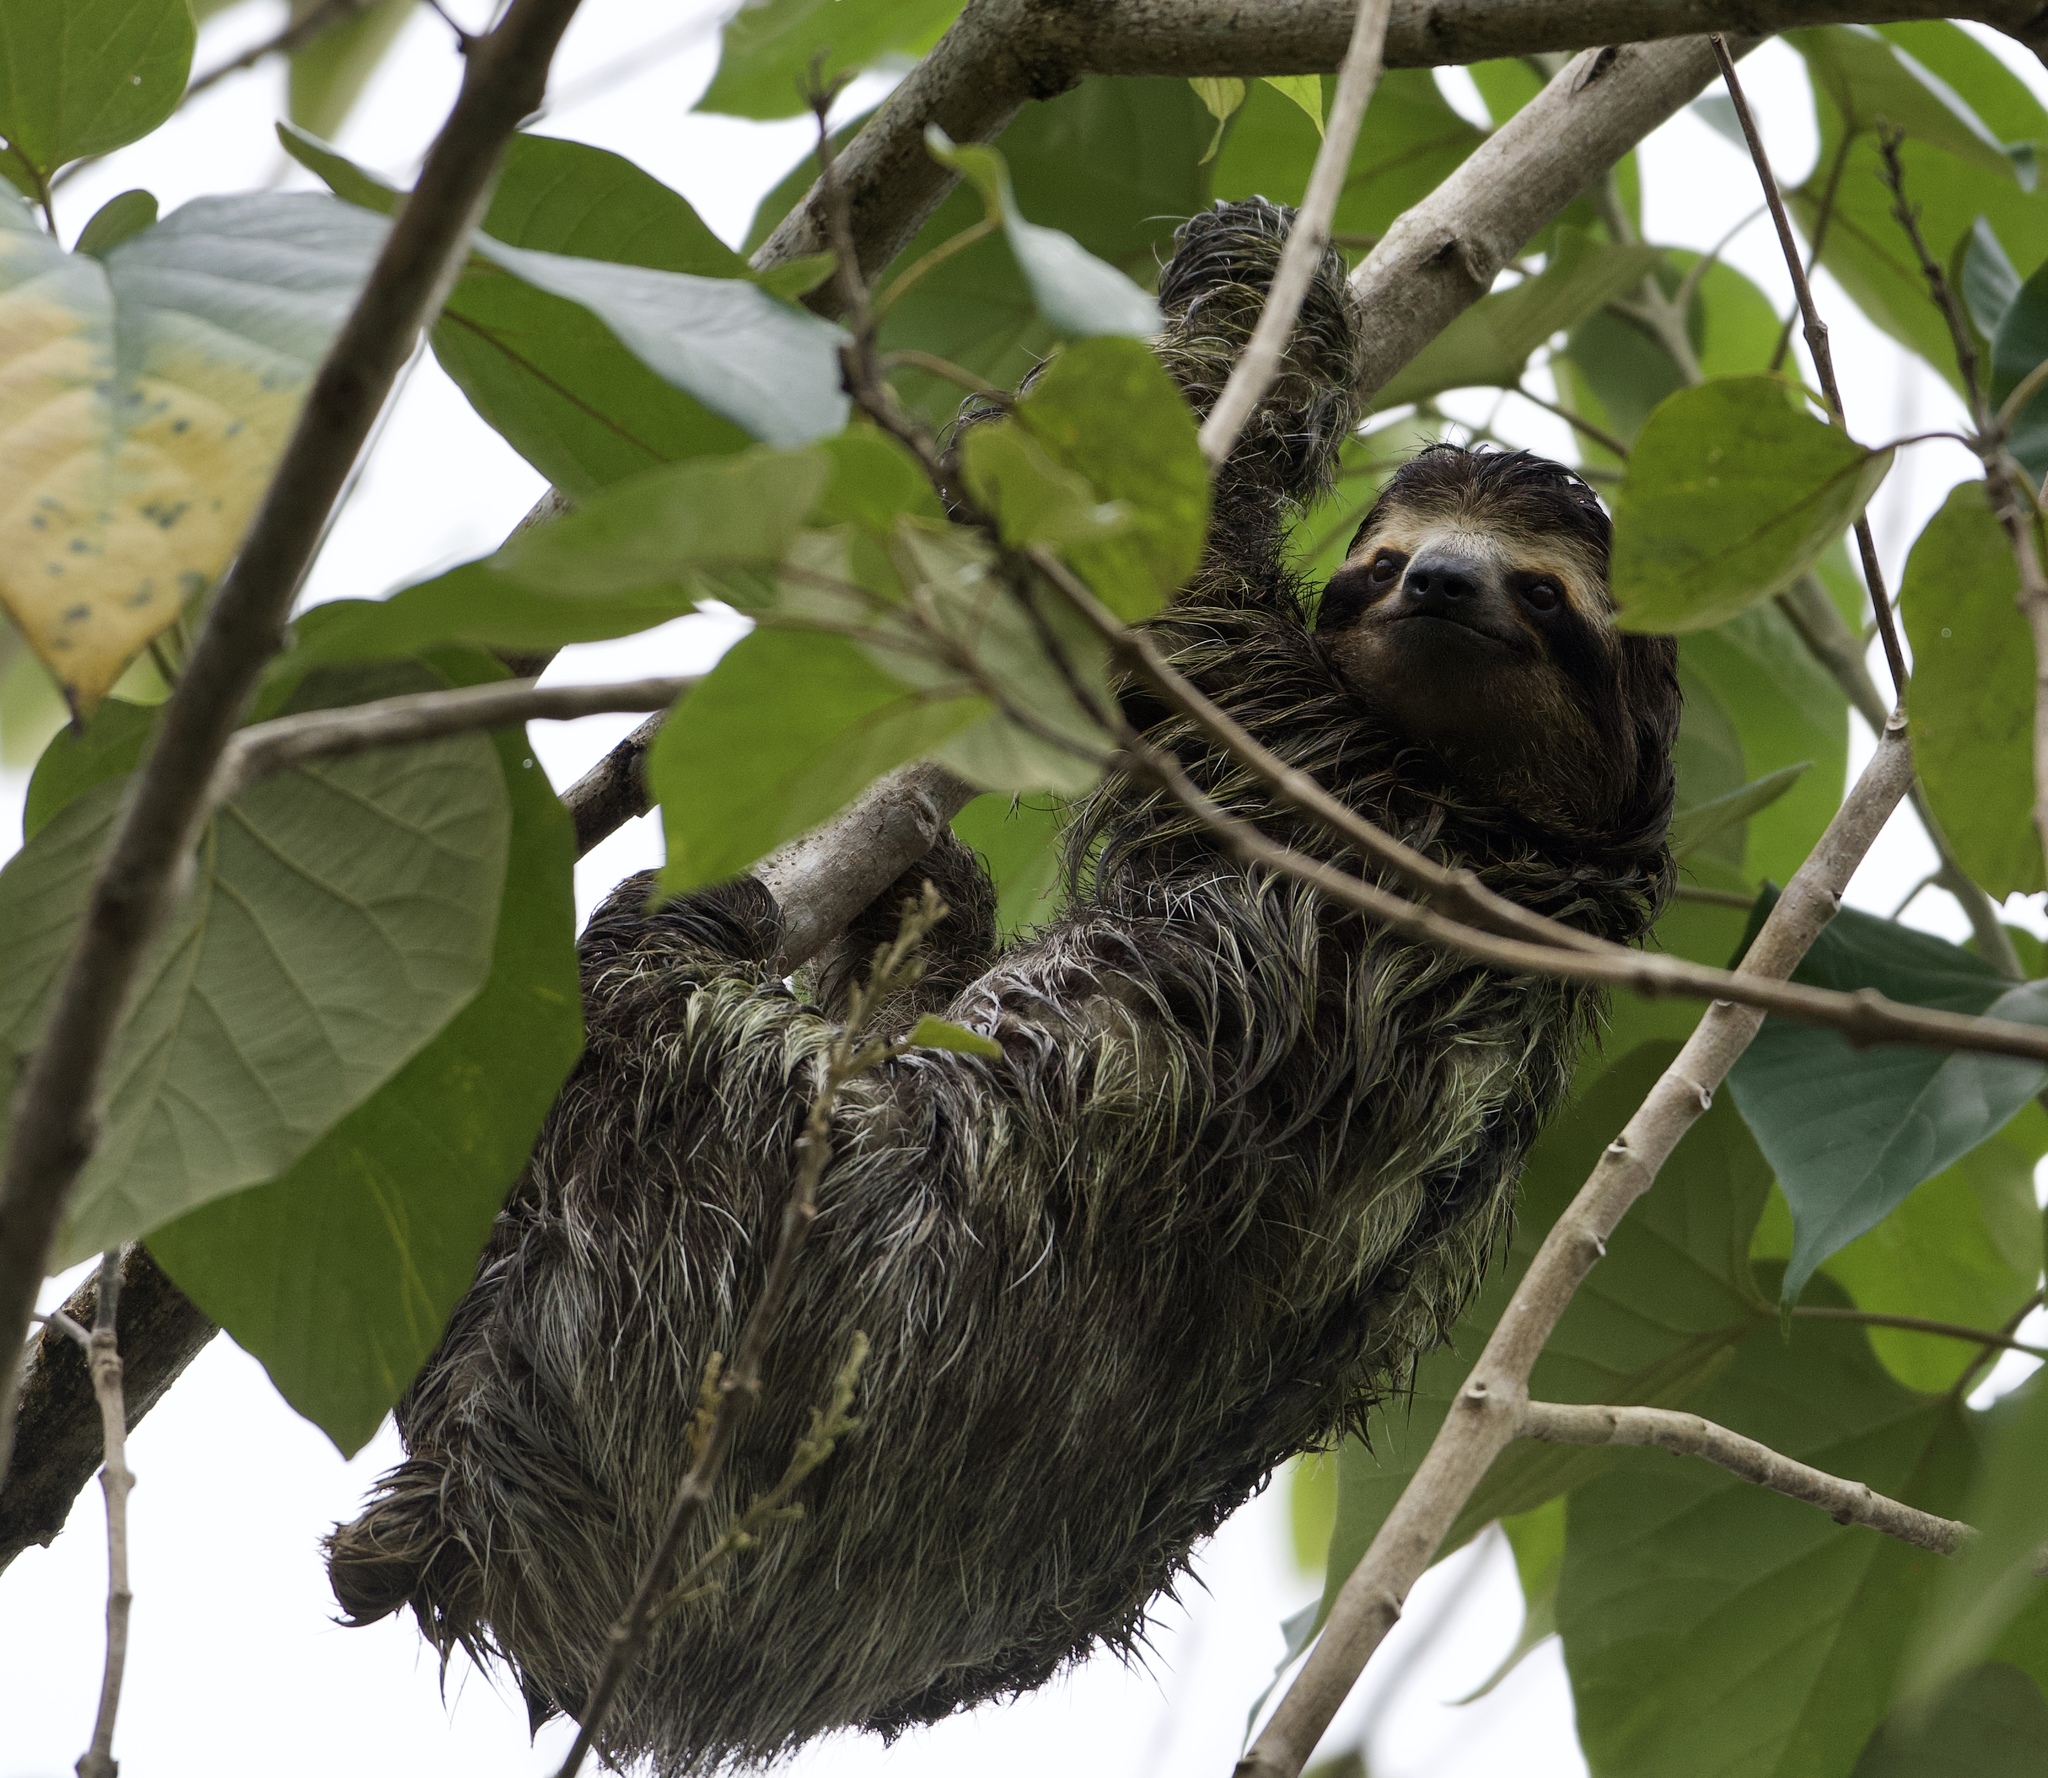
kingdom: Animalia
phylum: Chordata
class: Mammalia
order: Pilosa
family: Bradypodidae
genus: Bradypus
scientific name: Bradypus variegatus
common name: Brown-throated three-toed sloth
